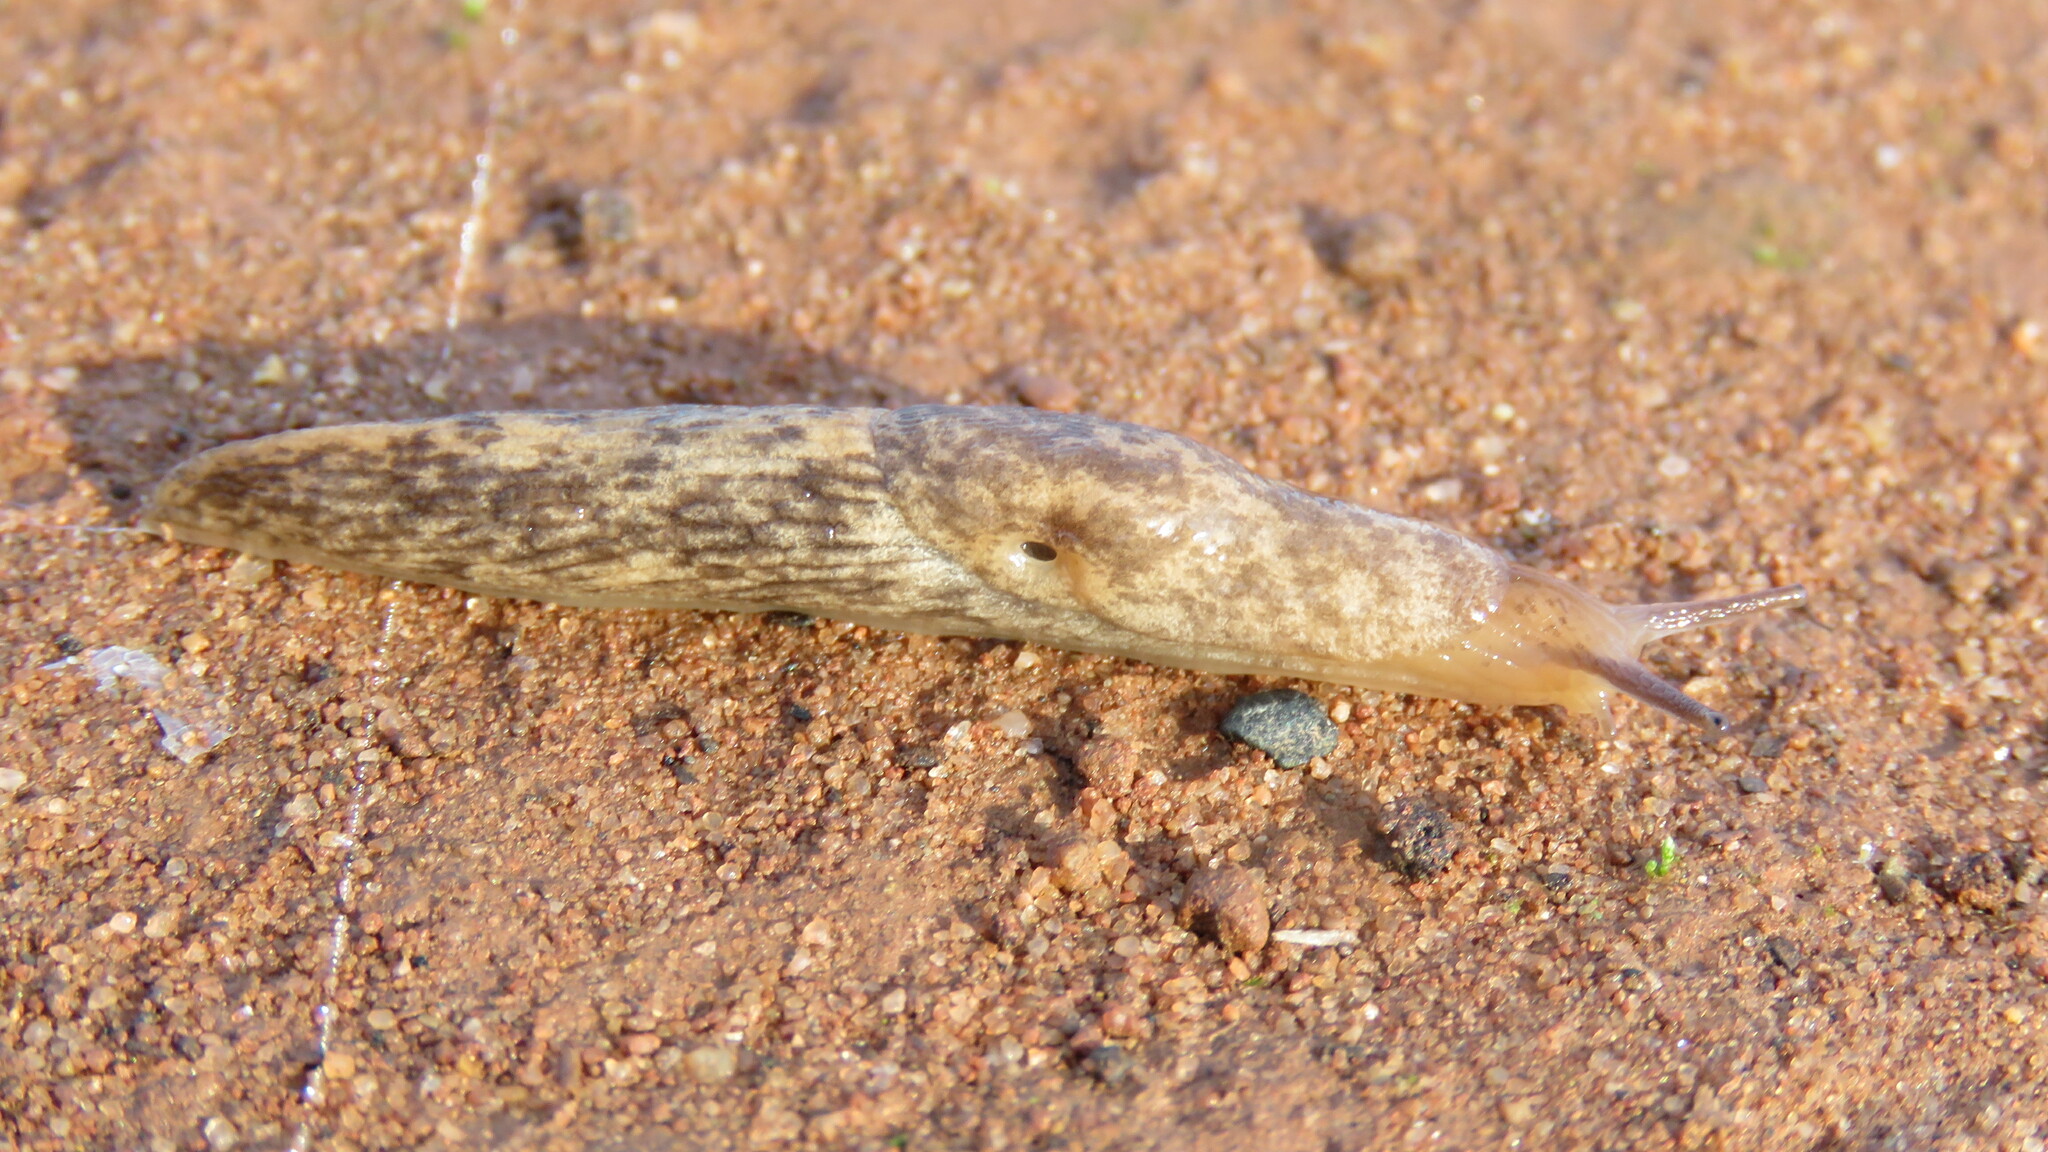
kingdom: Animalia
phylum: Mollusca
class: Gastropoda
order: Stylommatophora
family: Agriolimacidae
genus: Deroceras
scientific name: Deroceras reticulatum
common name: Gray field slug
